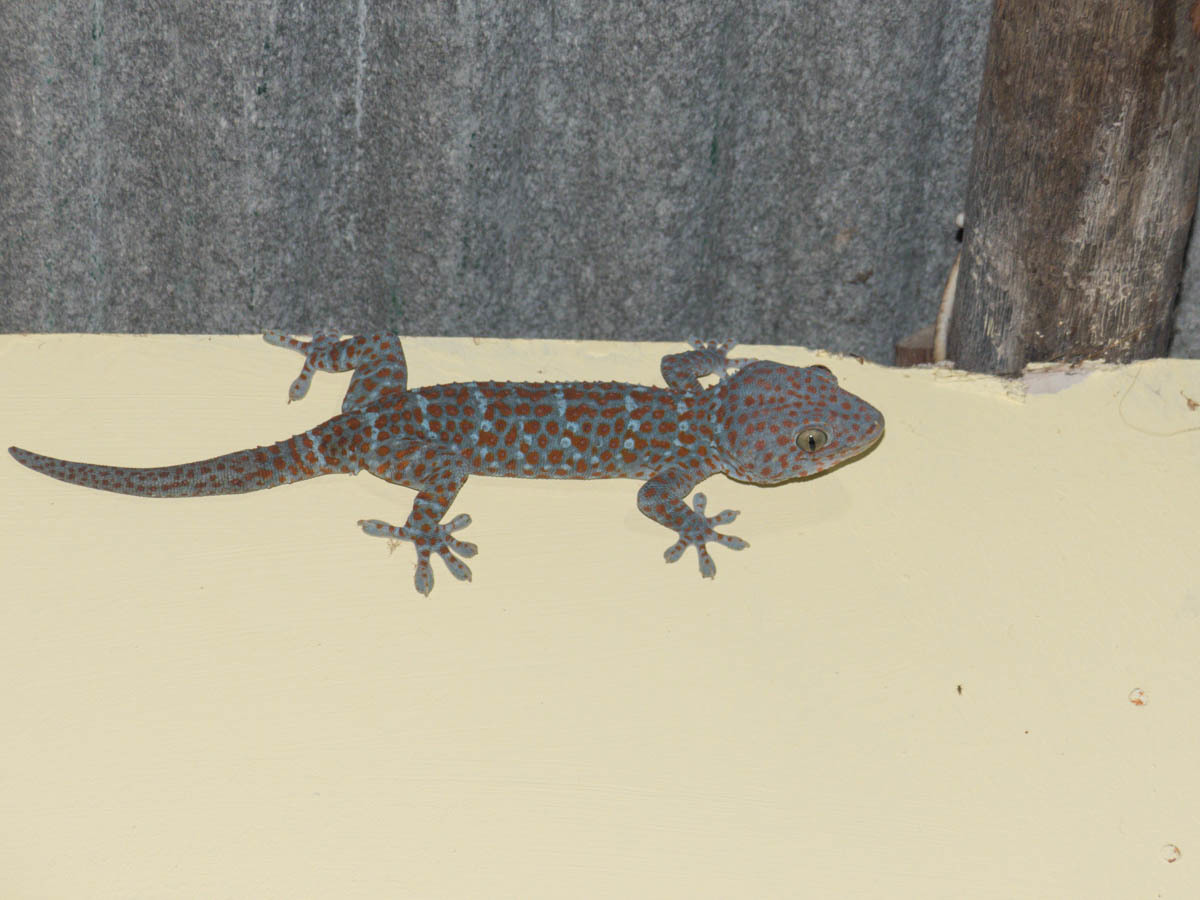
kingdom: Animalia
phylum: Chordata
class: Squamata
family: Gekkonidae
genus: Gekko
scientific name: Gekko gecko
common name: Tokay gecko
